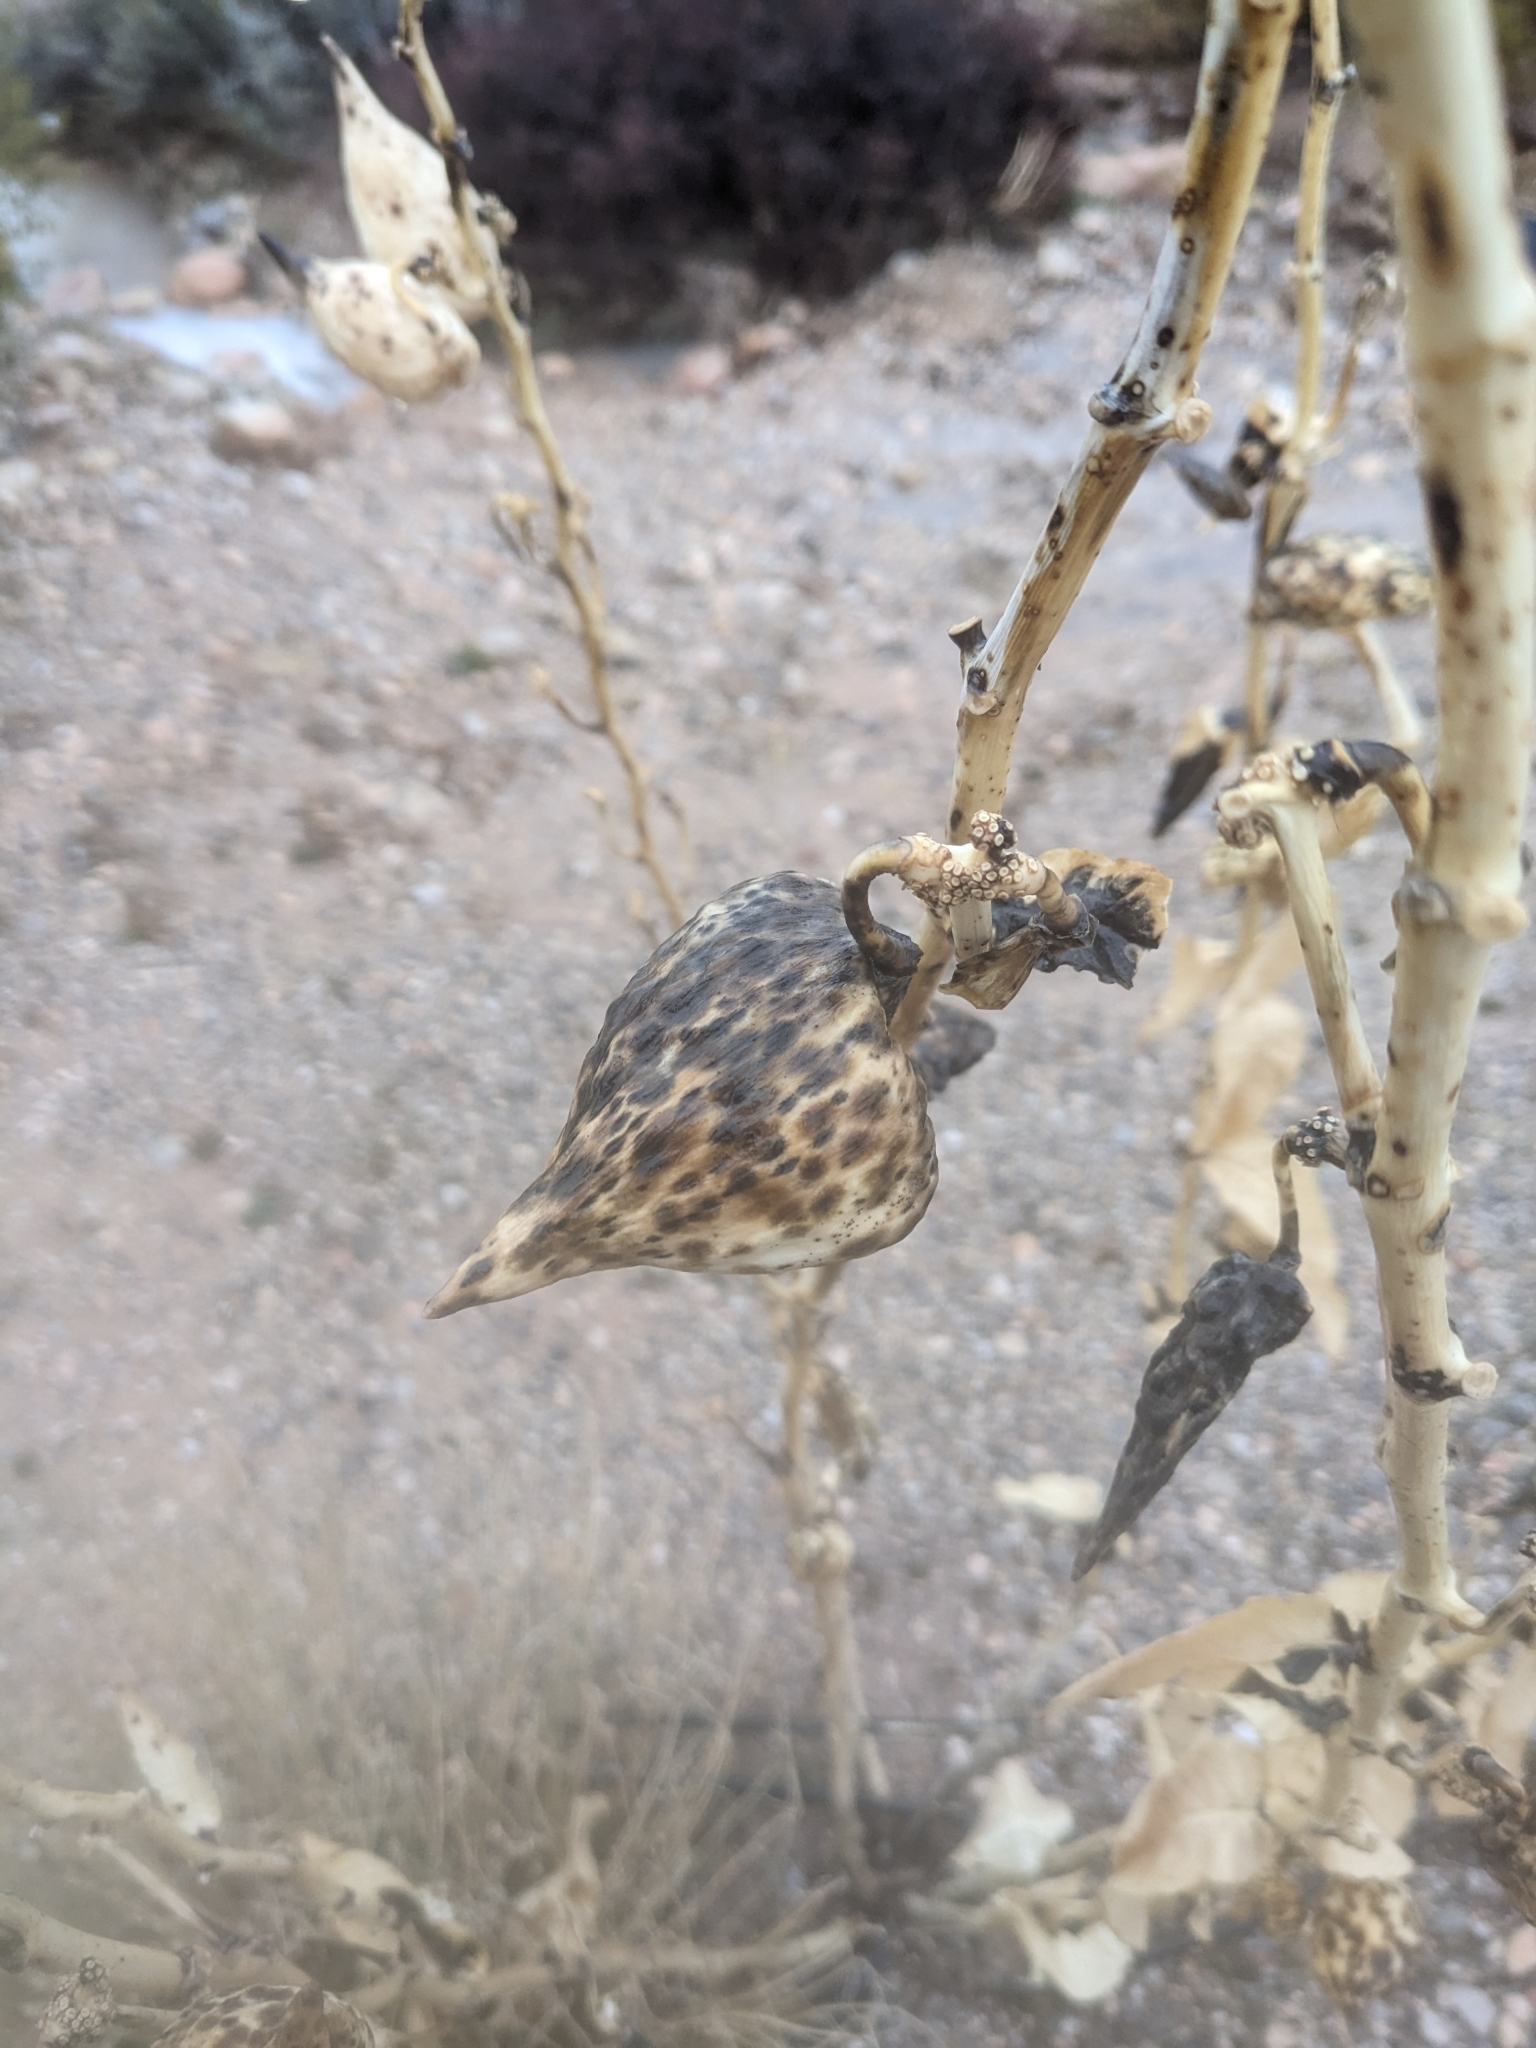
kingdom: Plantae
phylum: Tracheophyta
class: Magnoliopsida
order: Gentianales
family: Apocynaceae
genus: Asclepias
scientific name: Asclepias erosa
